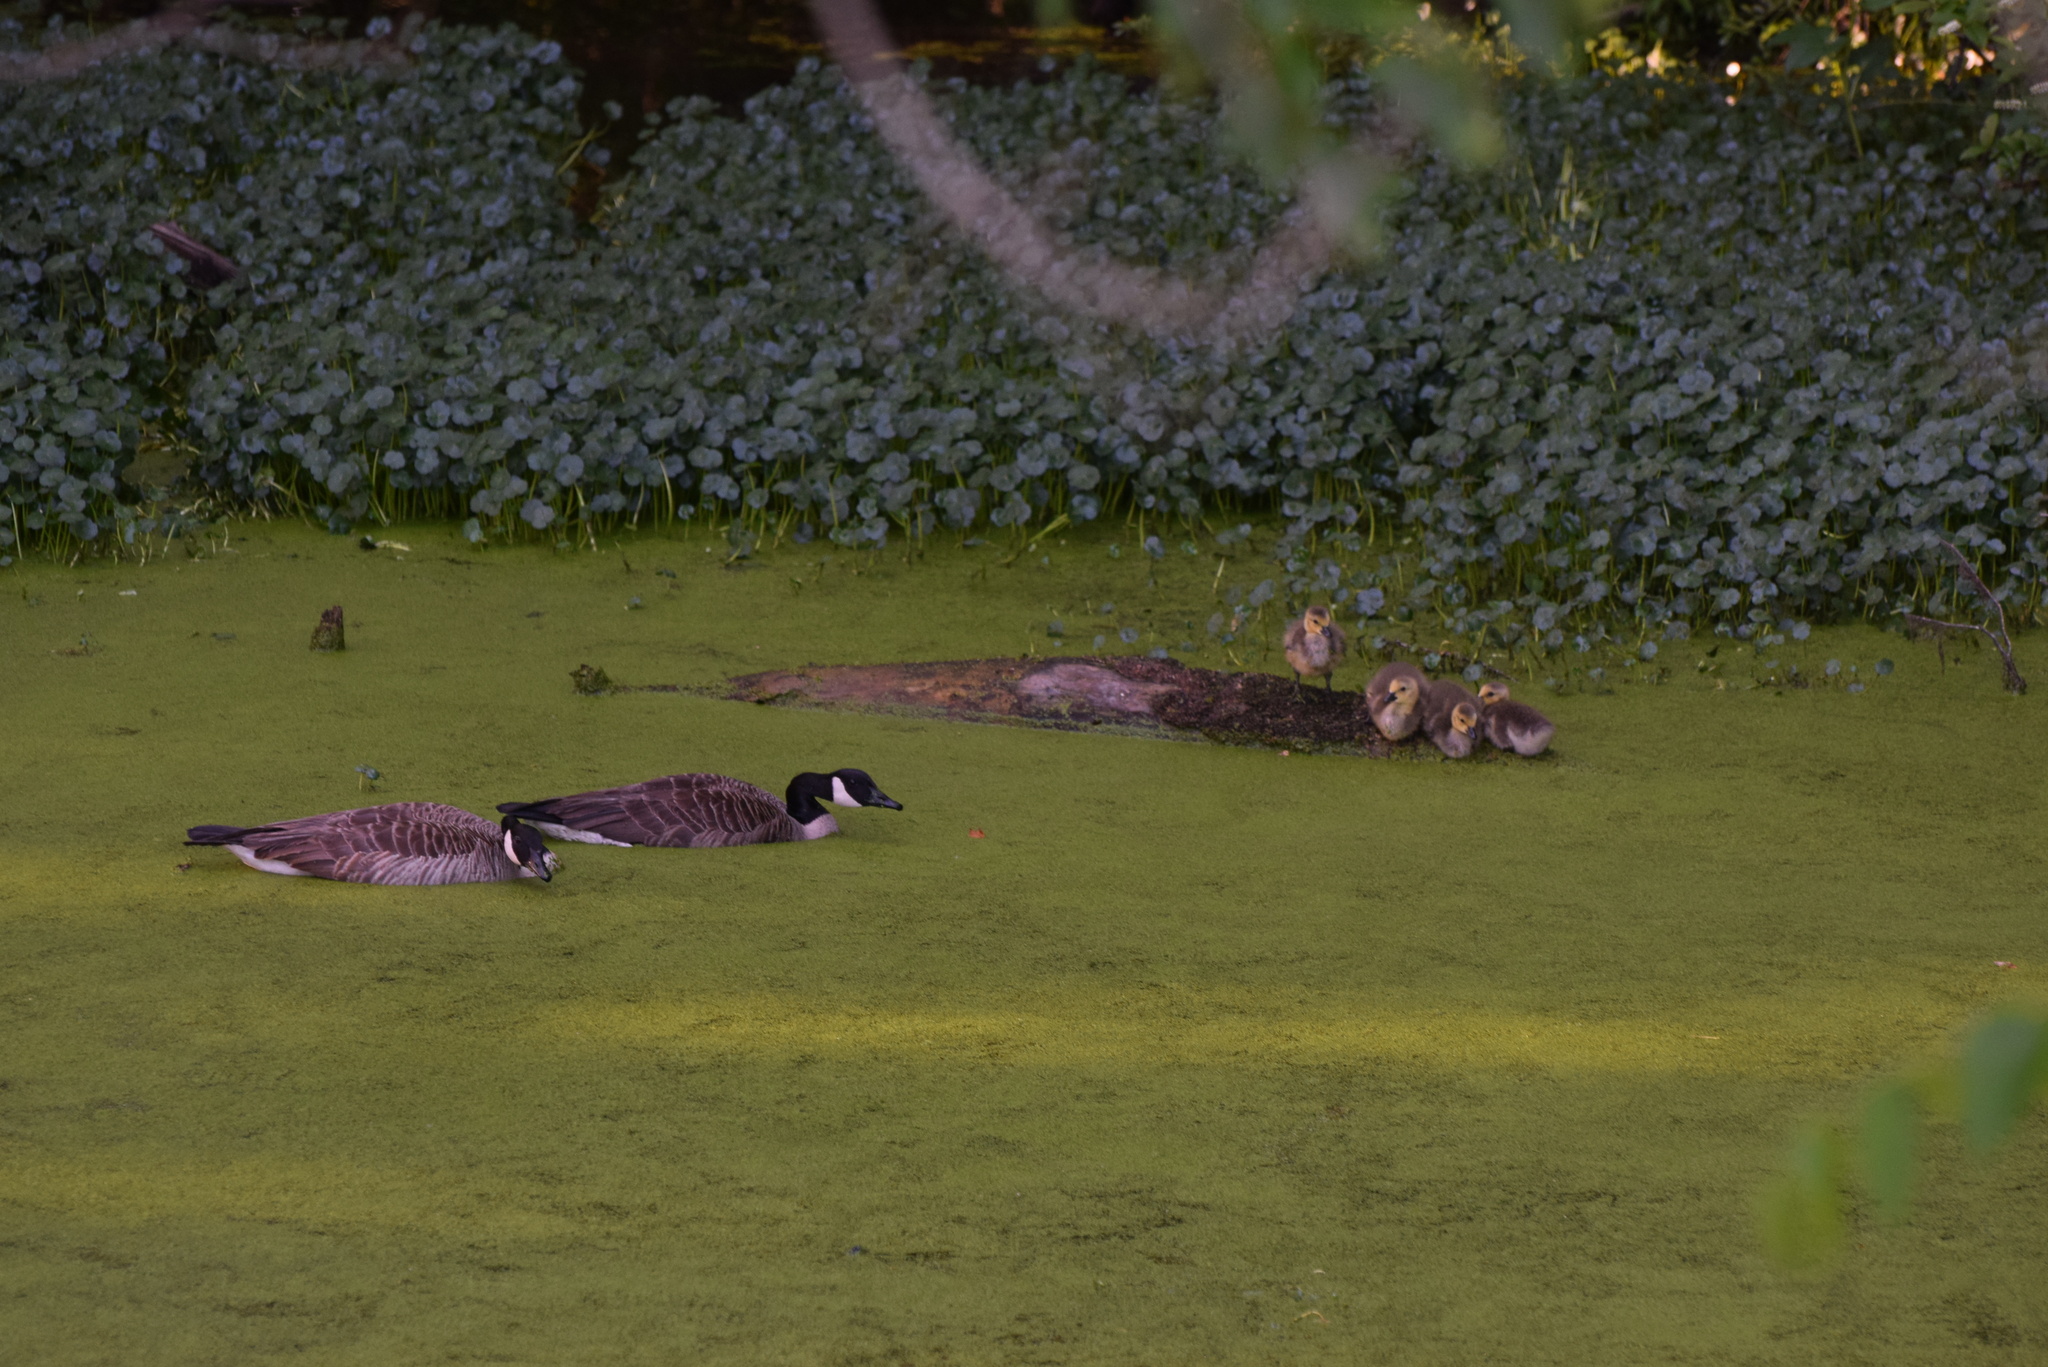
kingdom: Animalia
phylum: Chordata
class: Aves
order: Anseriformes
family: Anatidae
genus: Branta
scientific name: Branta canadensis
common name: Canada goose
